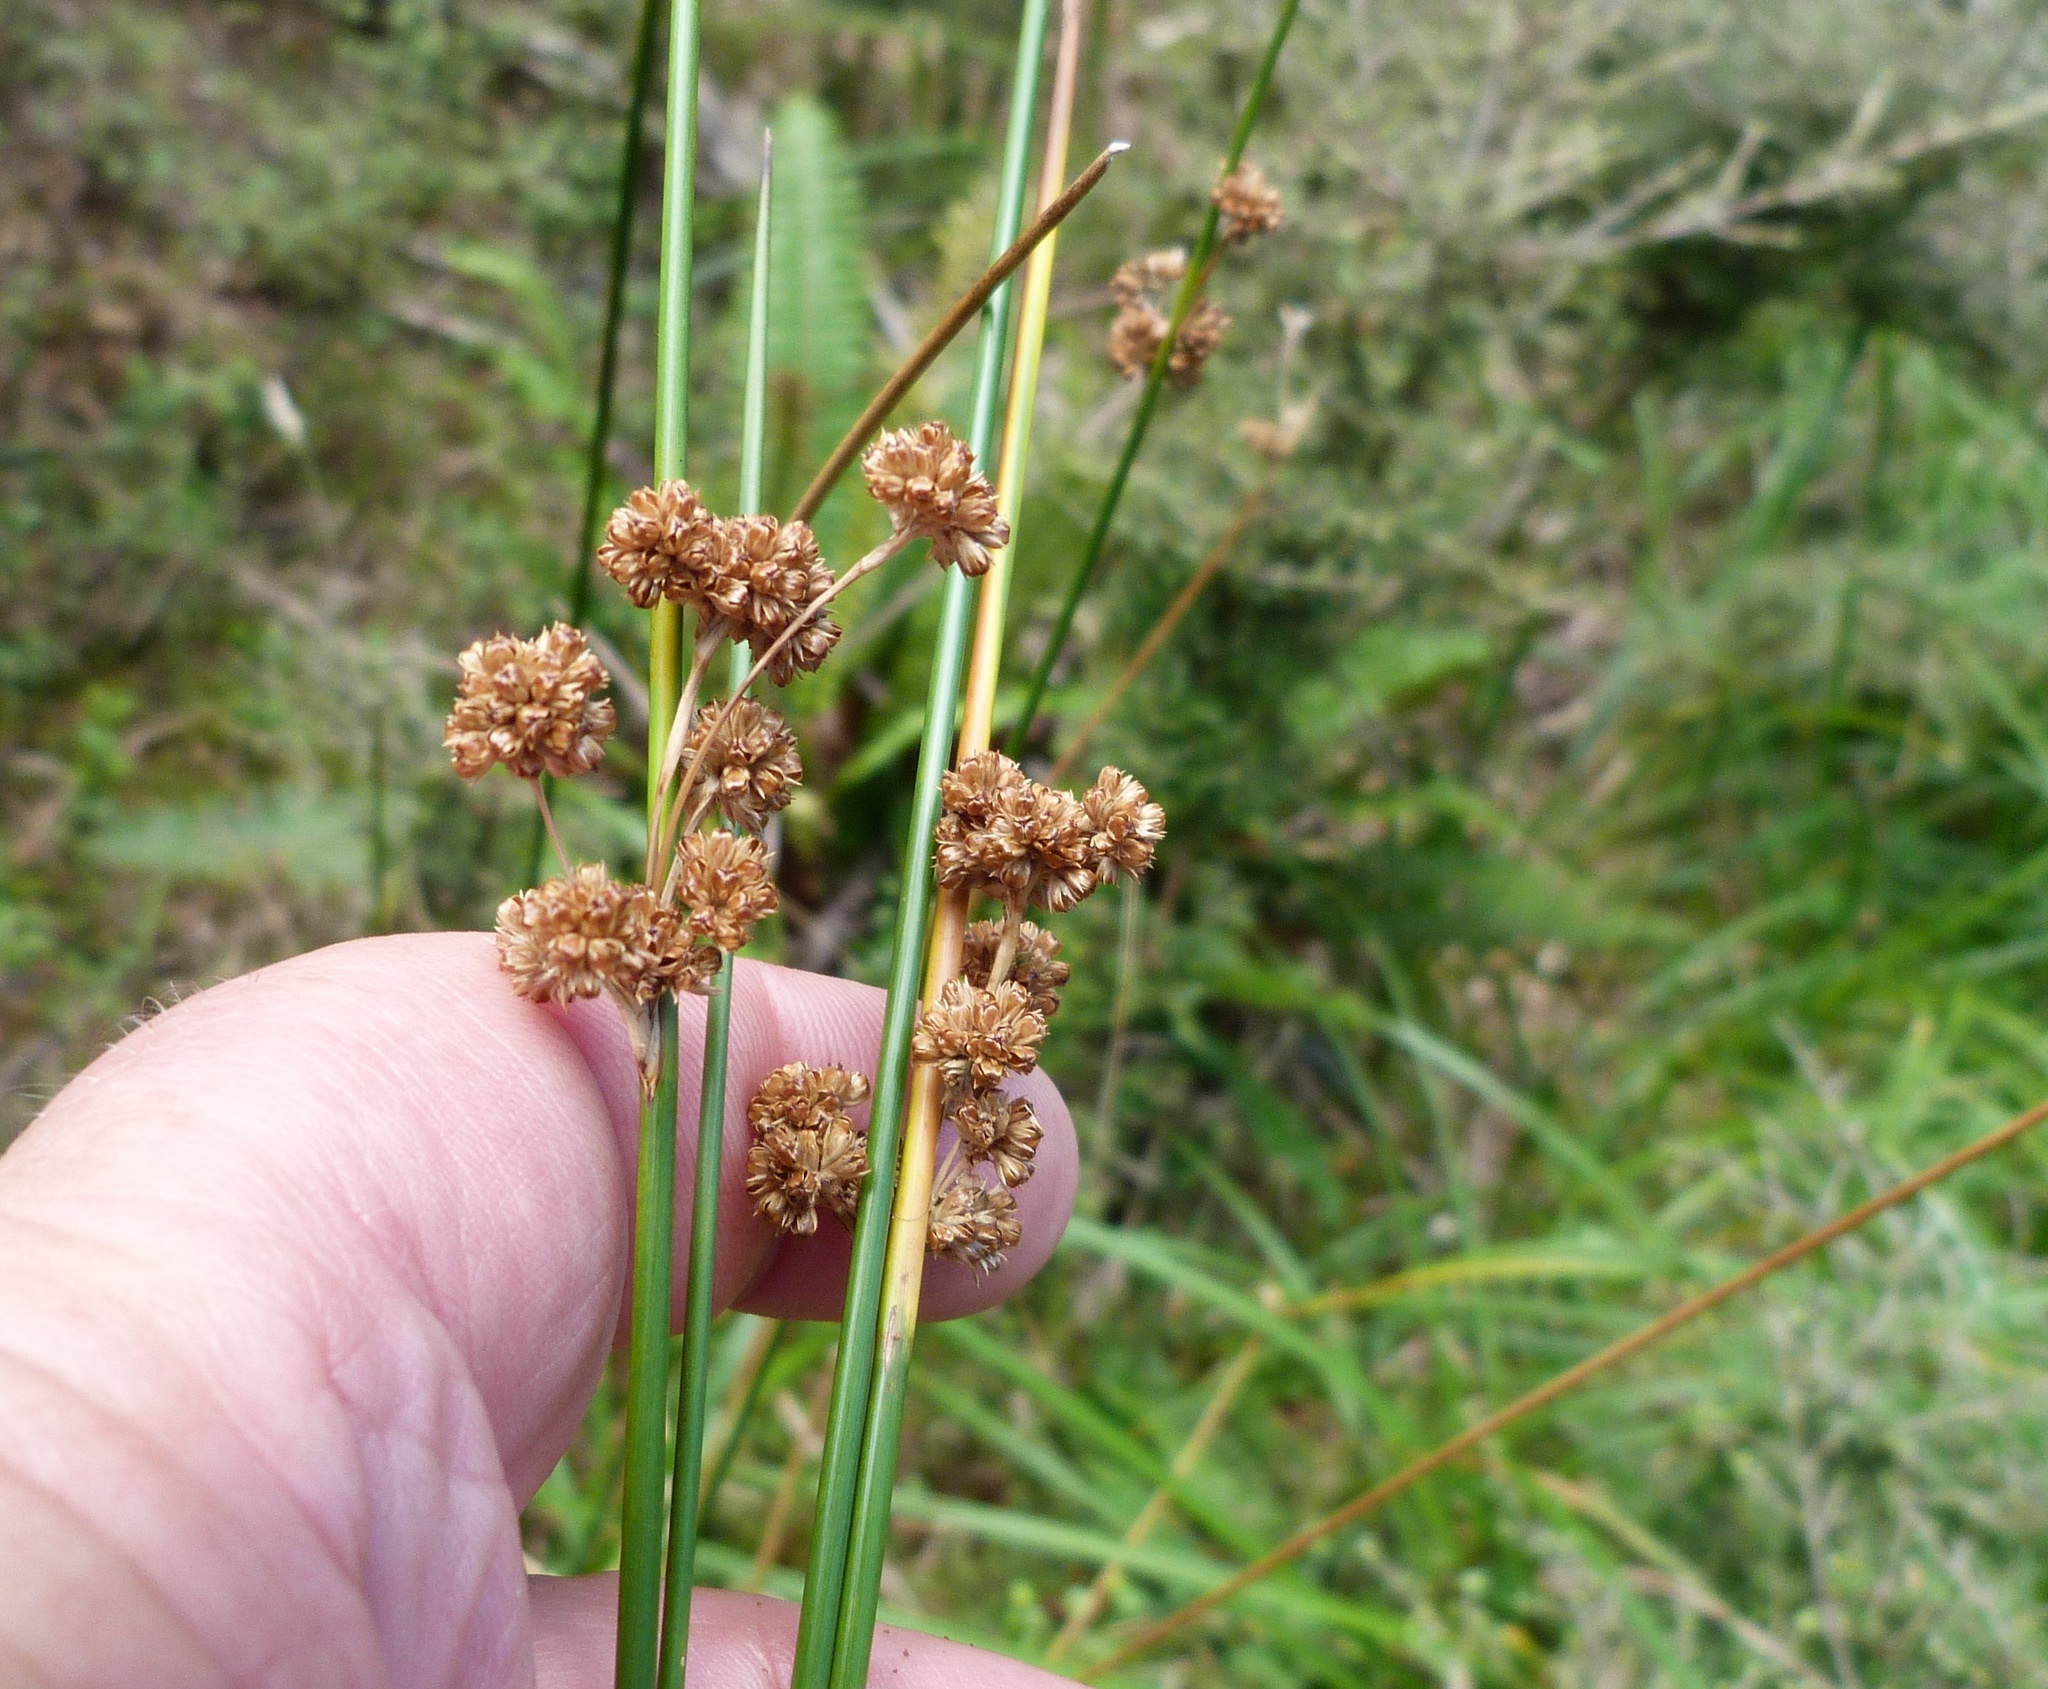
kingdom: Plantae
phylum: Tracheophyta
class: Liliopsida
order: Poales
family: Juncaceae
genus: Juncus
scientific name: Juncus edgariae
